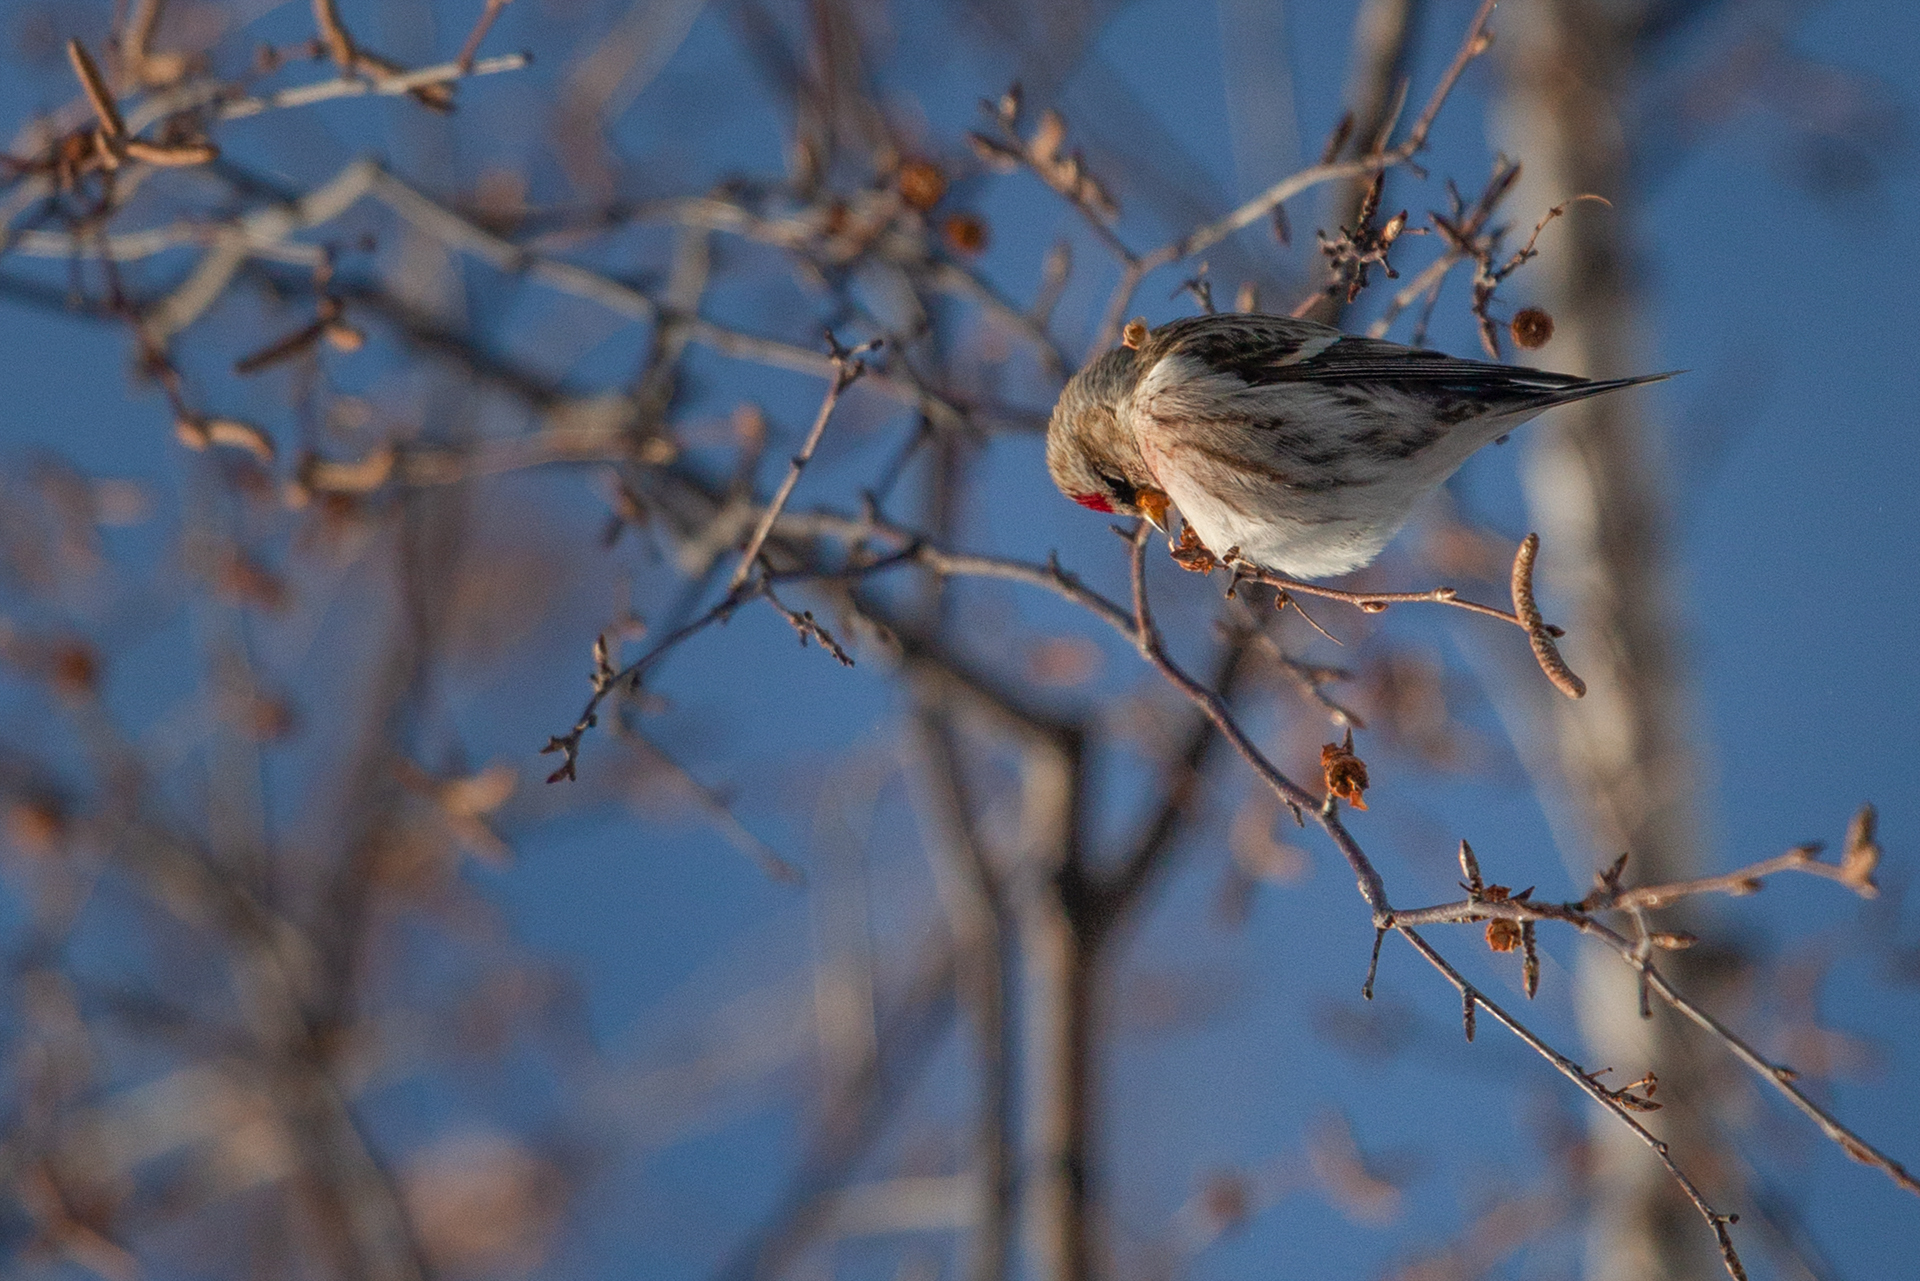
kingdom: Animalia
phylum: Chordata
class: Aves
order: Passeriformes
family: Fringillidae
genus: Acanthis
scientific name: Acanthis flammea
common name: Common redpoll
